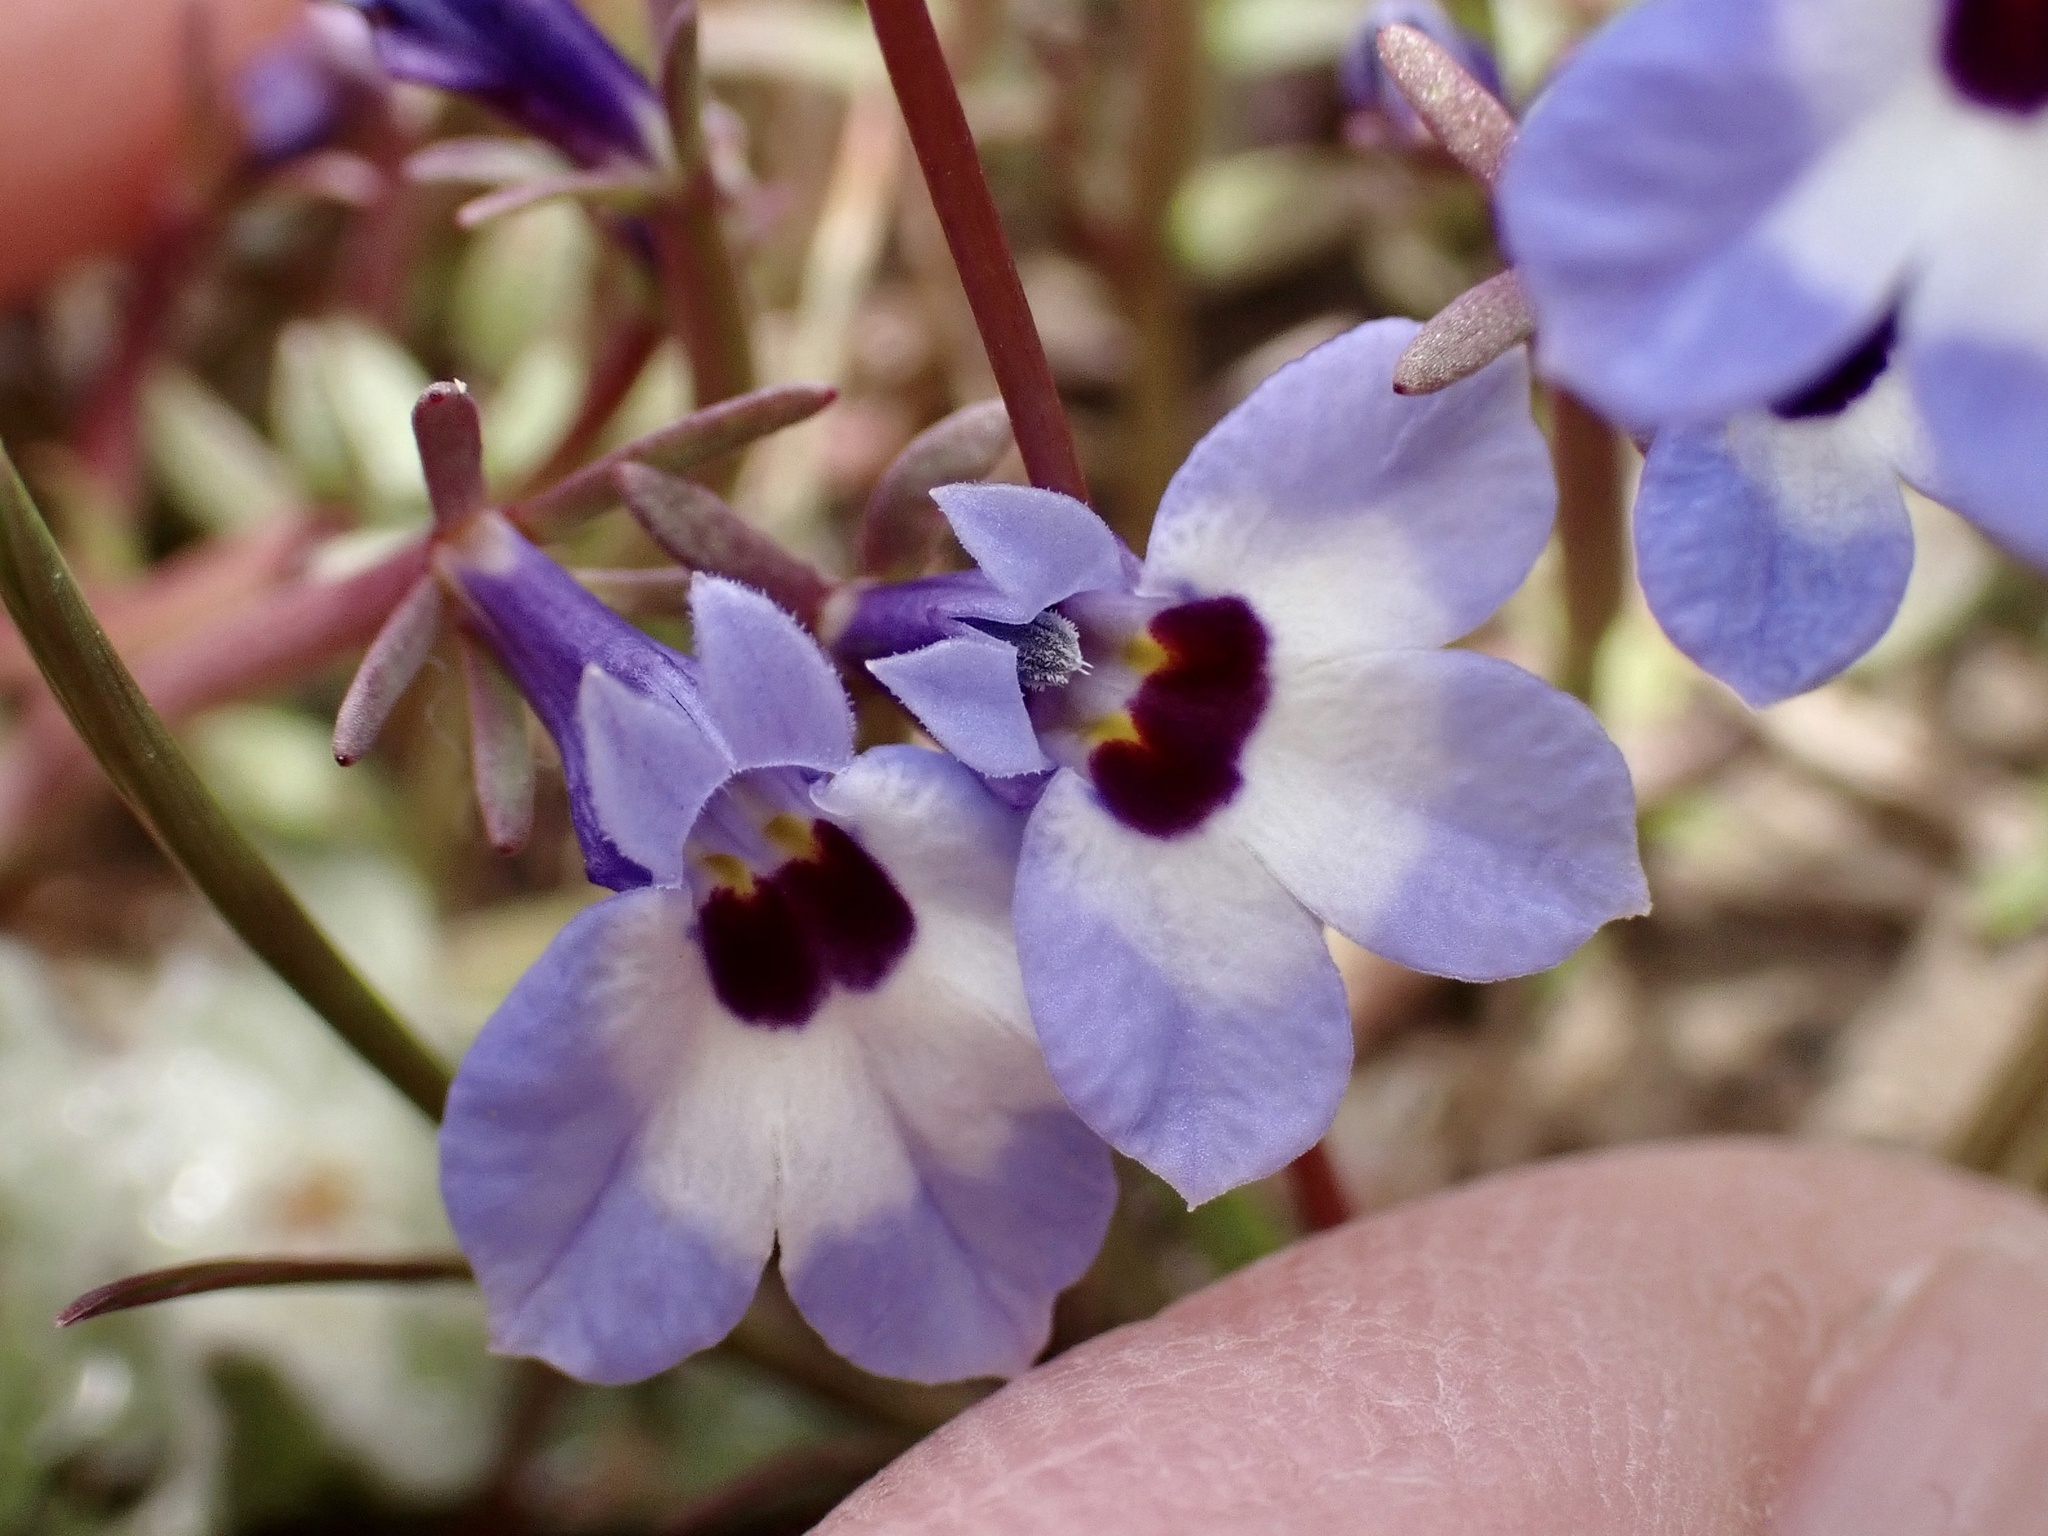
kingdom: Plantae
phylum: Tracheophyta
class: Magnoliopsida
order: Asterales
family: Campanulaceae
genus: Downingia
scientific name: Downingia concolor
